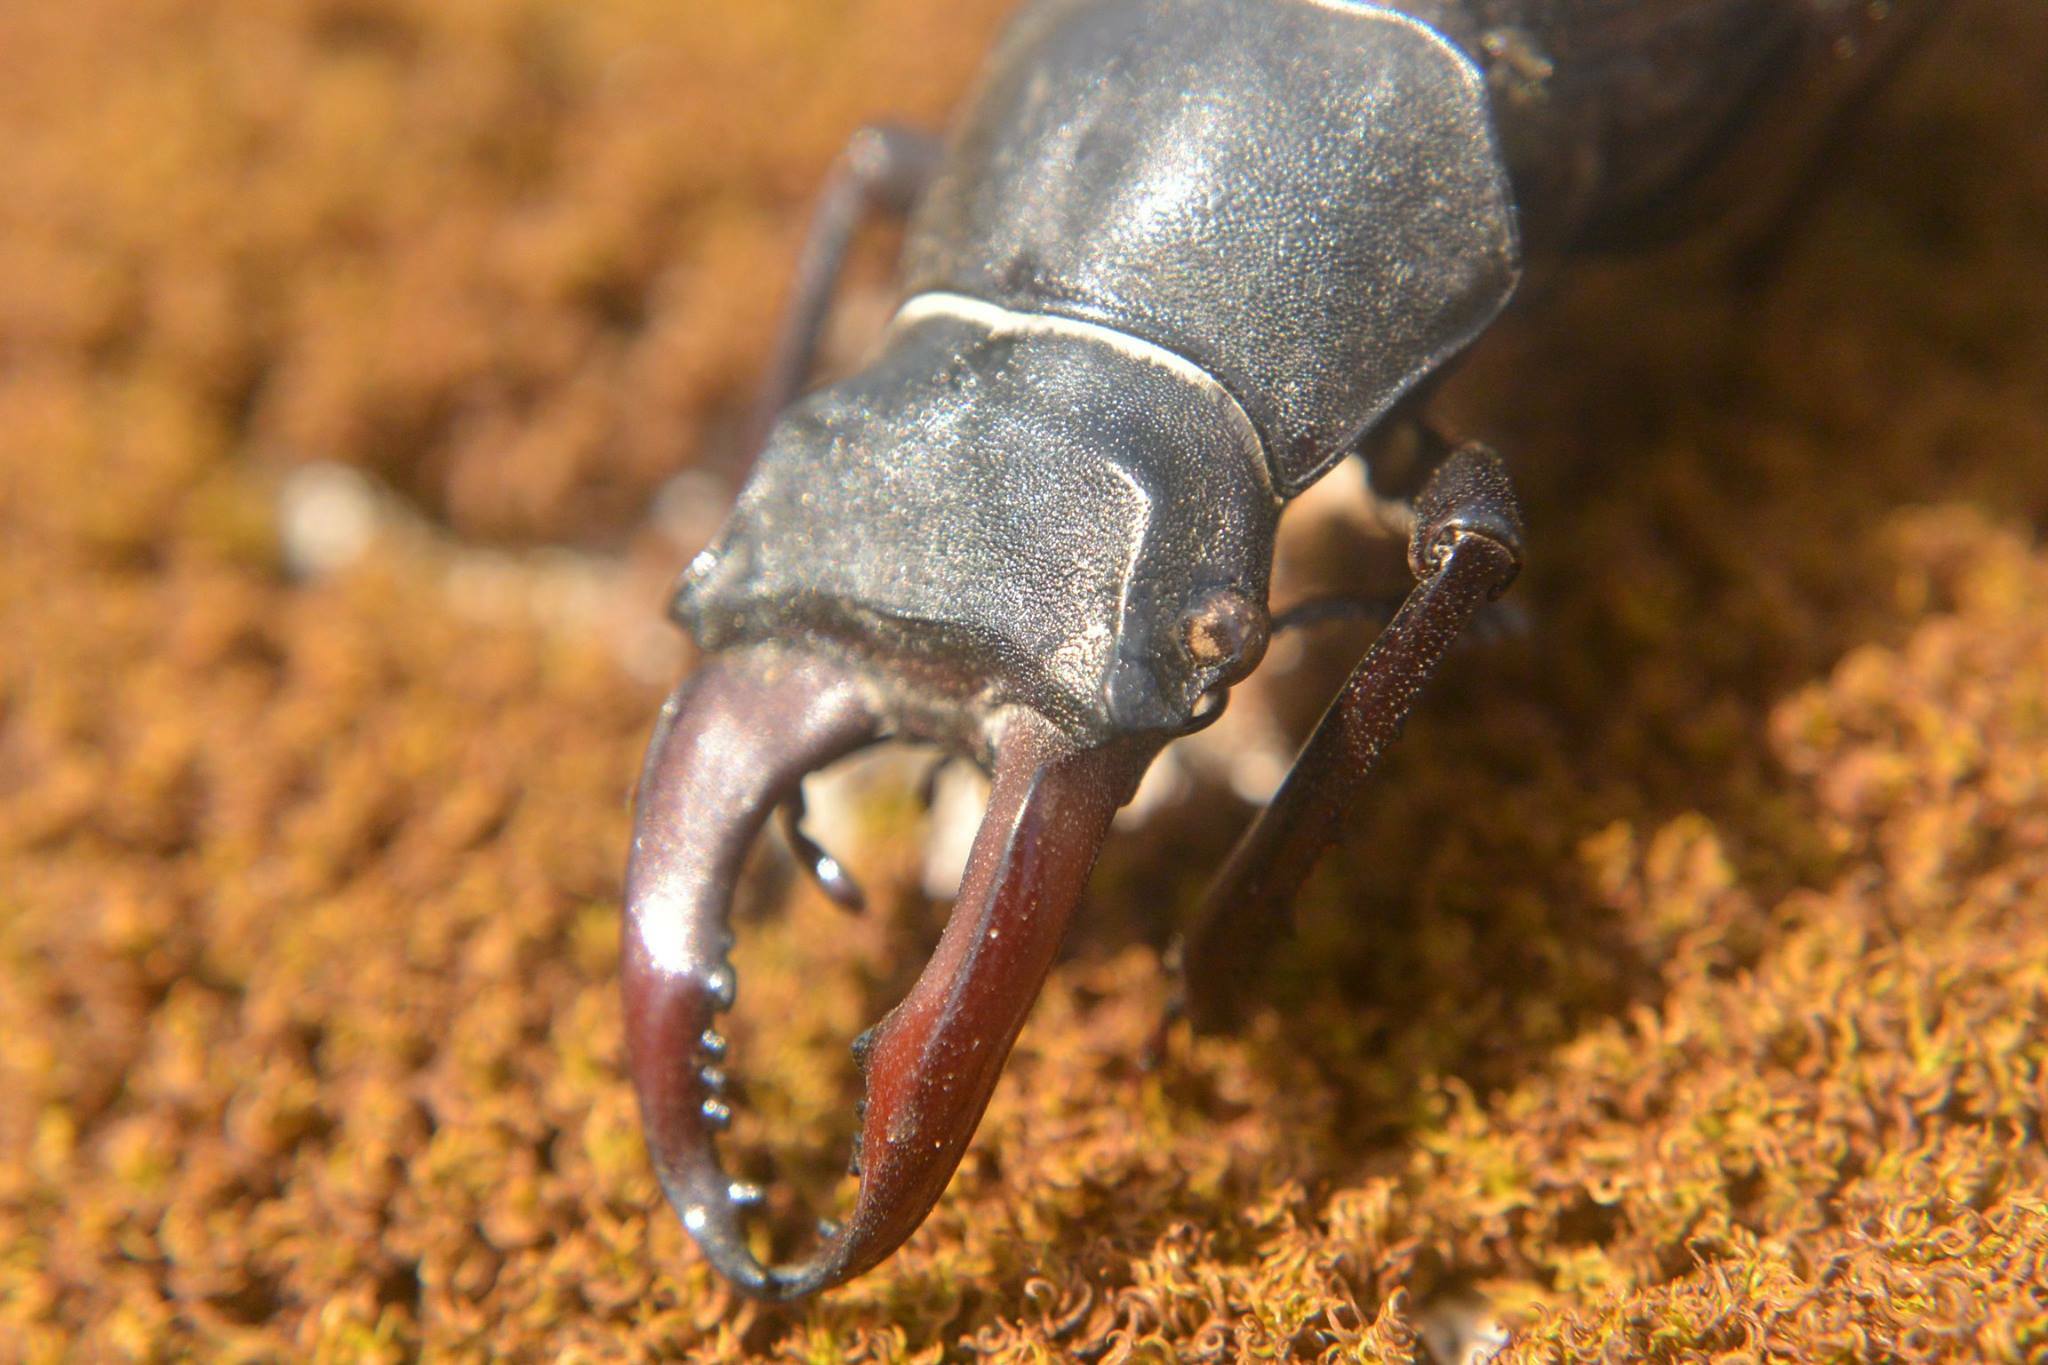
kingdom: Animalia
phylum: Arthropoda
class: Insecta
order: Coleoptera
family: Lucanidae
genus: Lucanus
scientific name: Lucanus cervus
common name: Stag beetle
